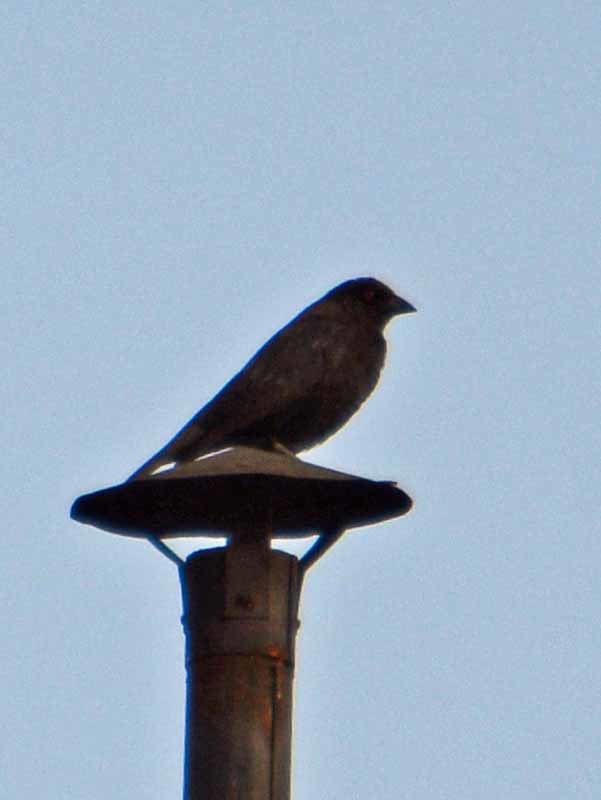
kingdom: Animalia
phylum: Chordata
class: Aves
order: Passeriformes
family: Icteridae
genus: Molothrus
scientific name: Molothrus aeneus
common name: Bronzed cowbird
